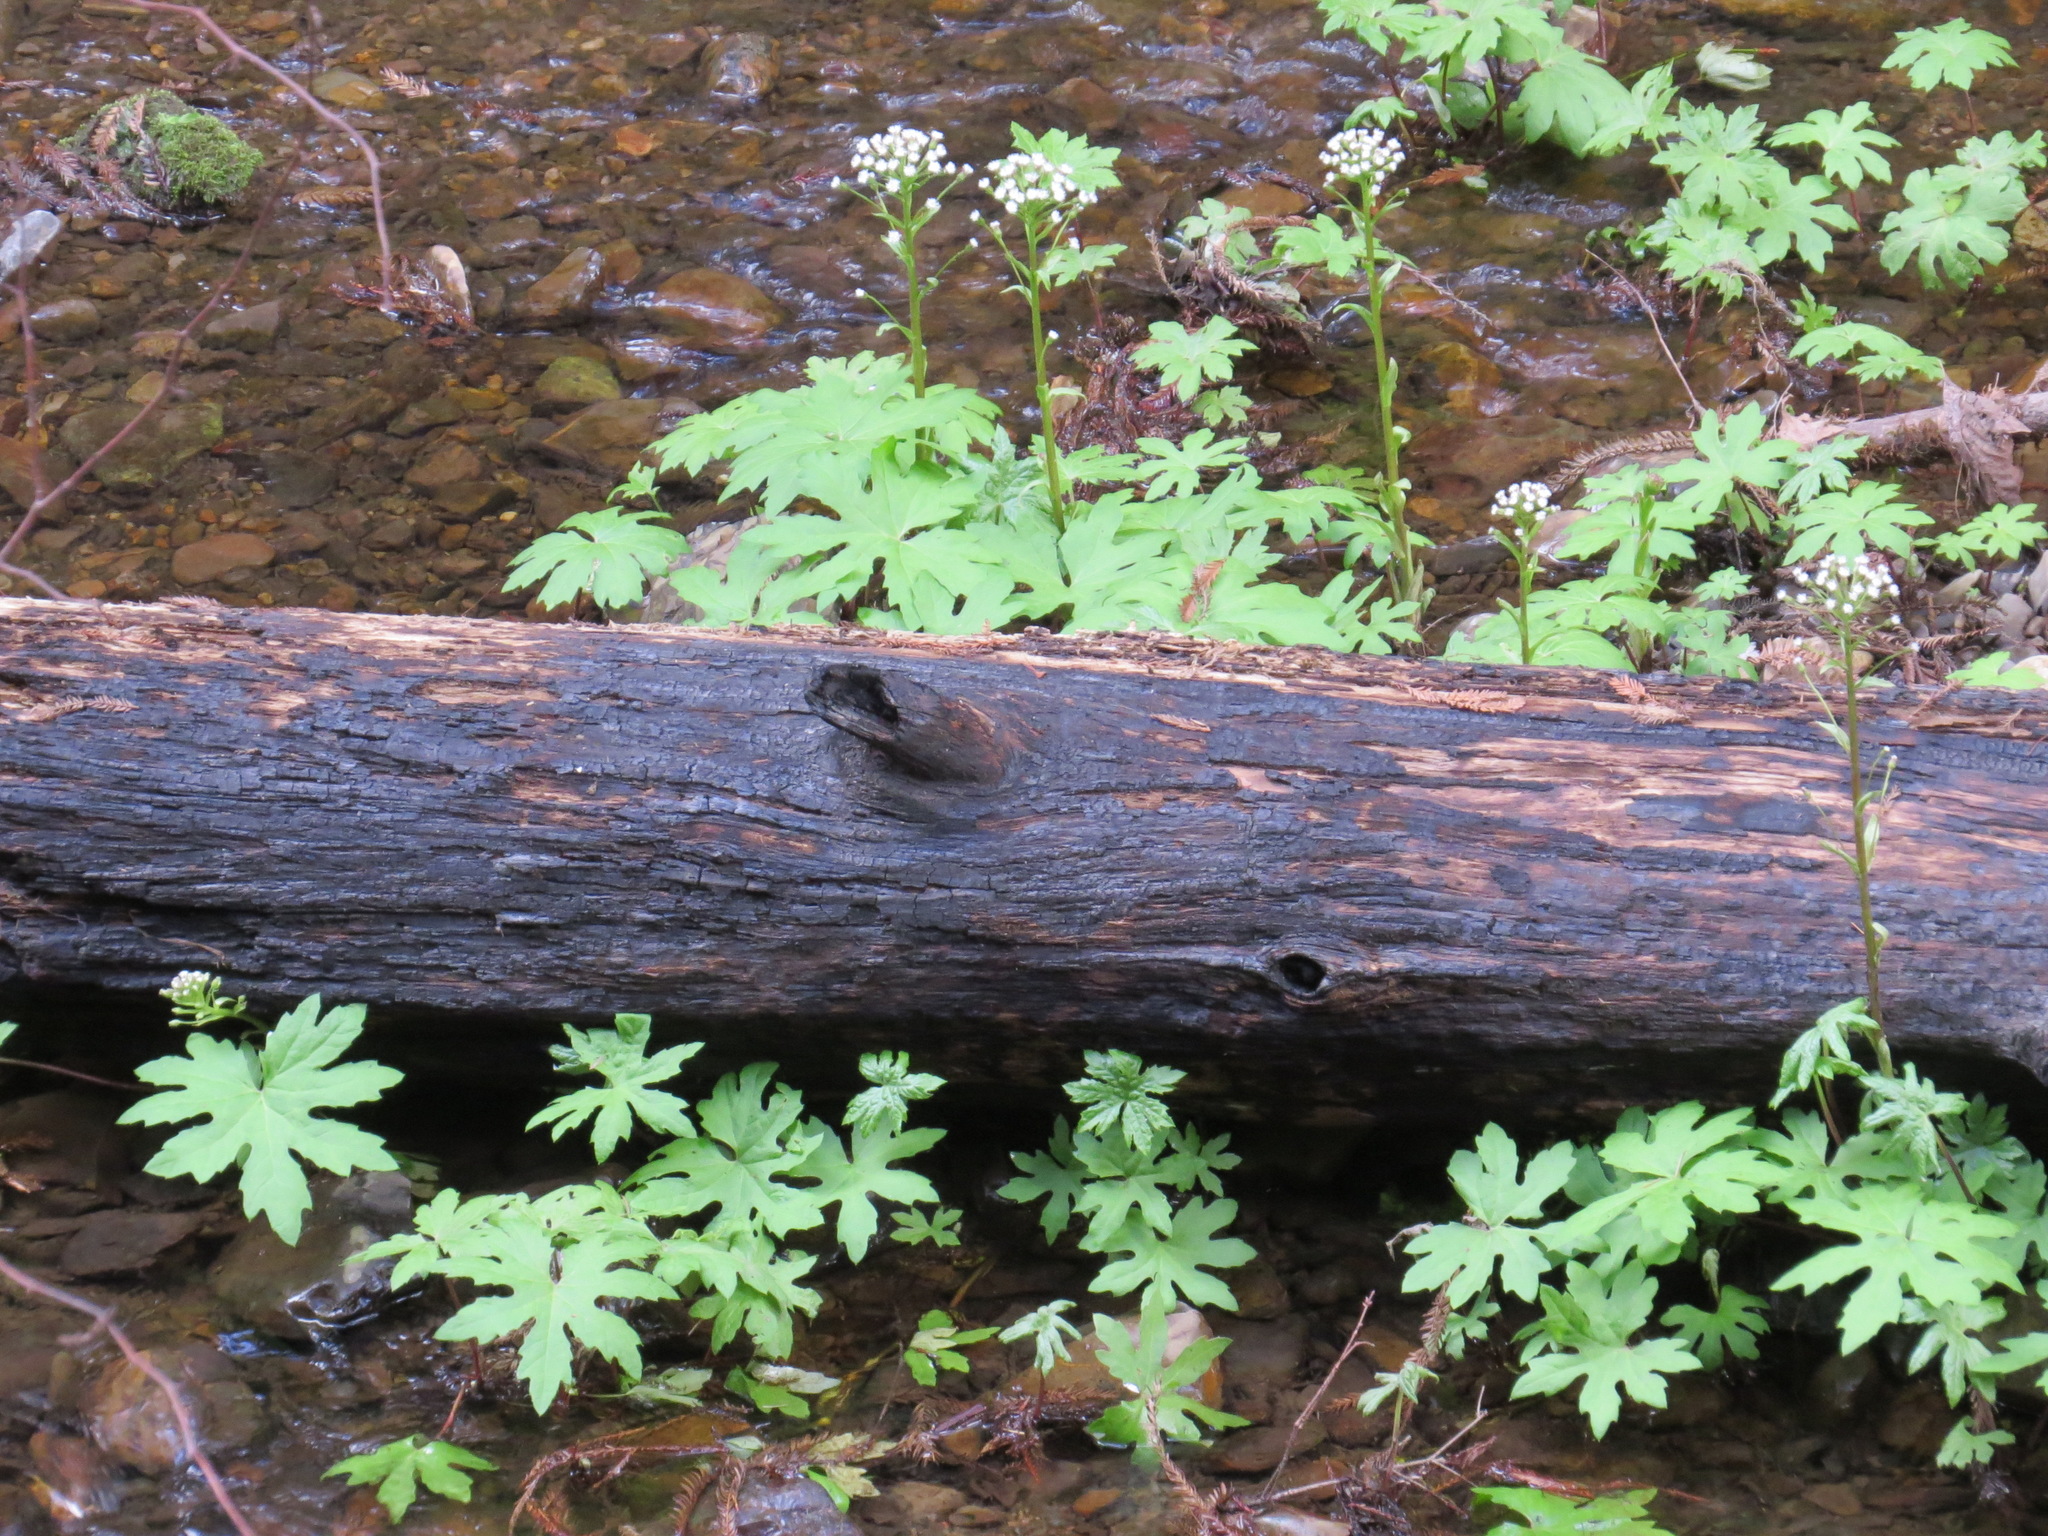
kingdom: Plantae
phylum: Tracheophyta
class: Magnoliopsida
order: Asterales
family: Asteraceae
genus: Petasites
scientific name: Petasites frigidus
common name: Arctic butterbur
